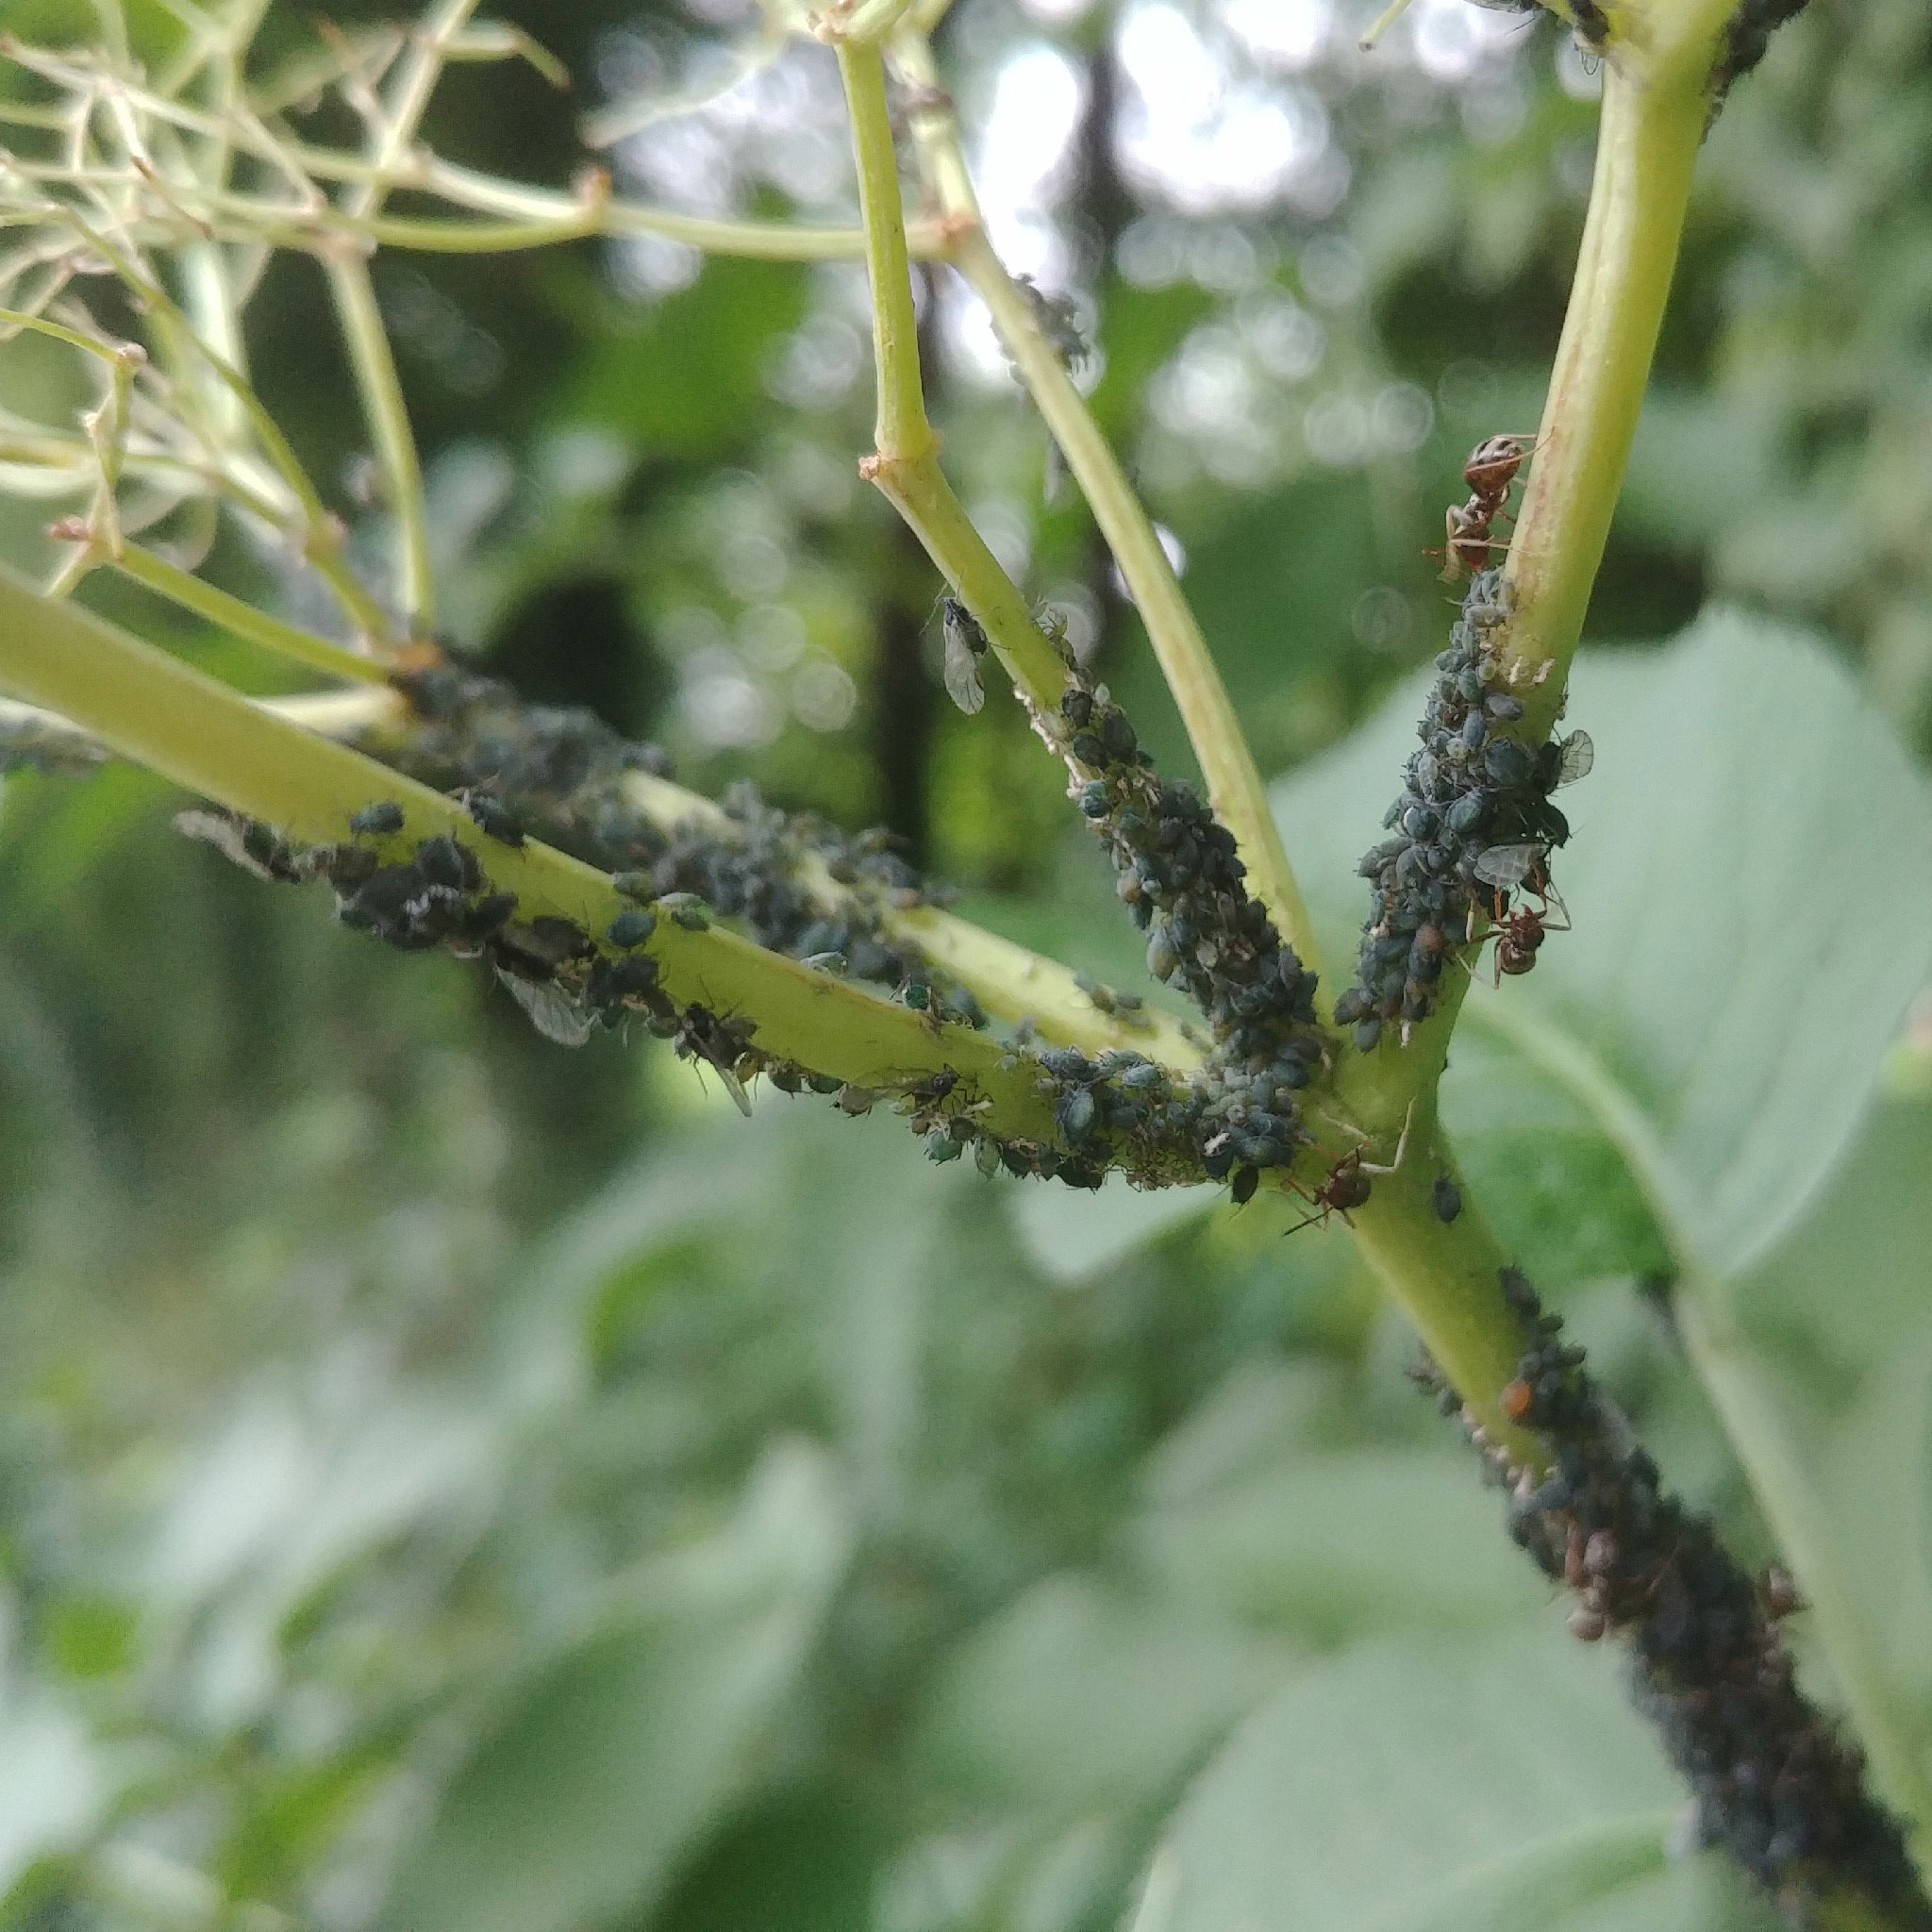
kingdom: Animalia
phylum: Arthropoda
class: Insecta
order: Hemiptera
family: Aphididae
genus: Aphis
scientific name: Aphis sambuci
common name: Elder aphid
